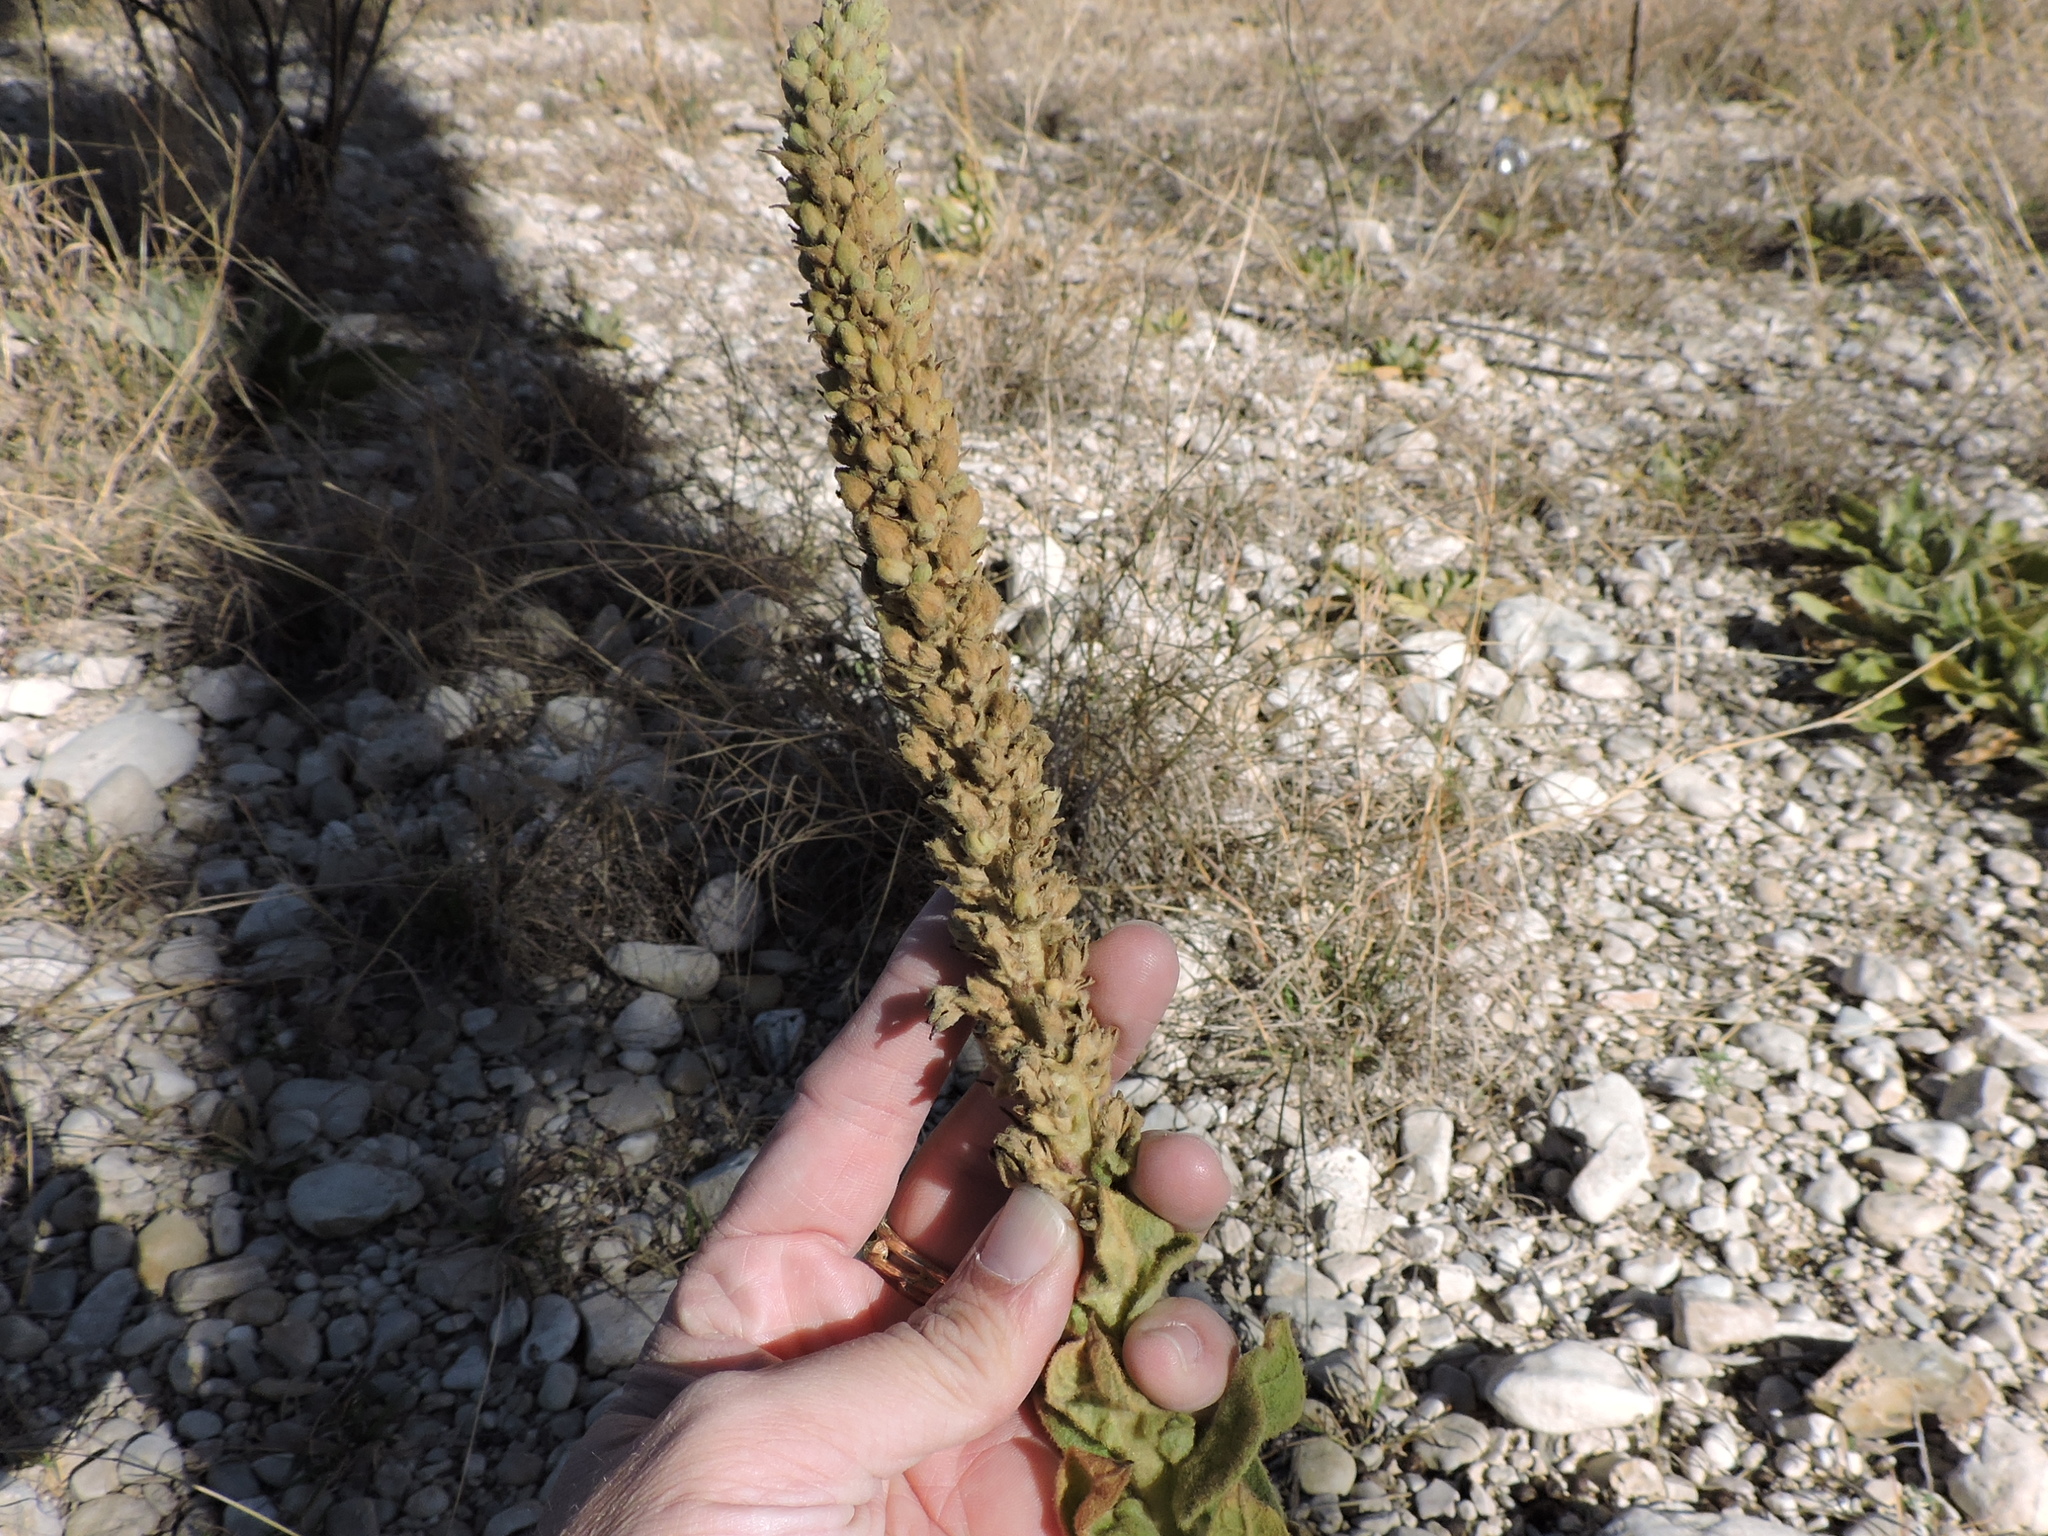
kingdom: Plantae
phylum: Tracheophyta
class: Magnoliopsida
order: Lamiales
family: Scrophulariaceae
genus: Verbascum
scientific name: Verbascum thapsus
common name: Common mullein
